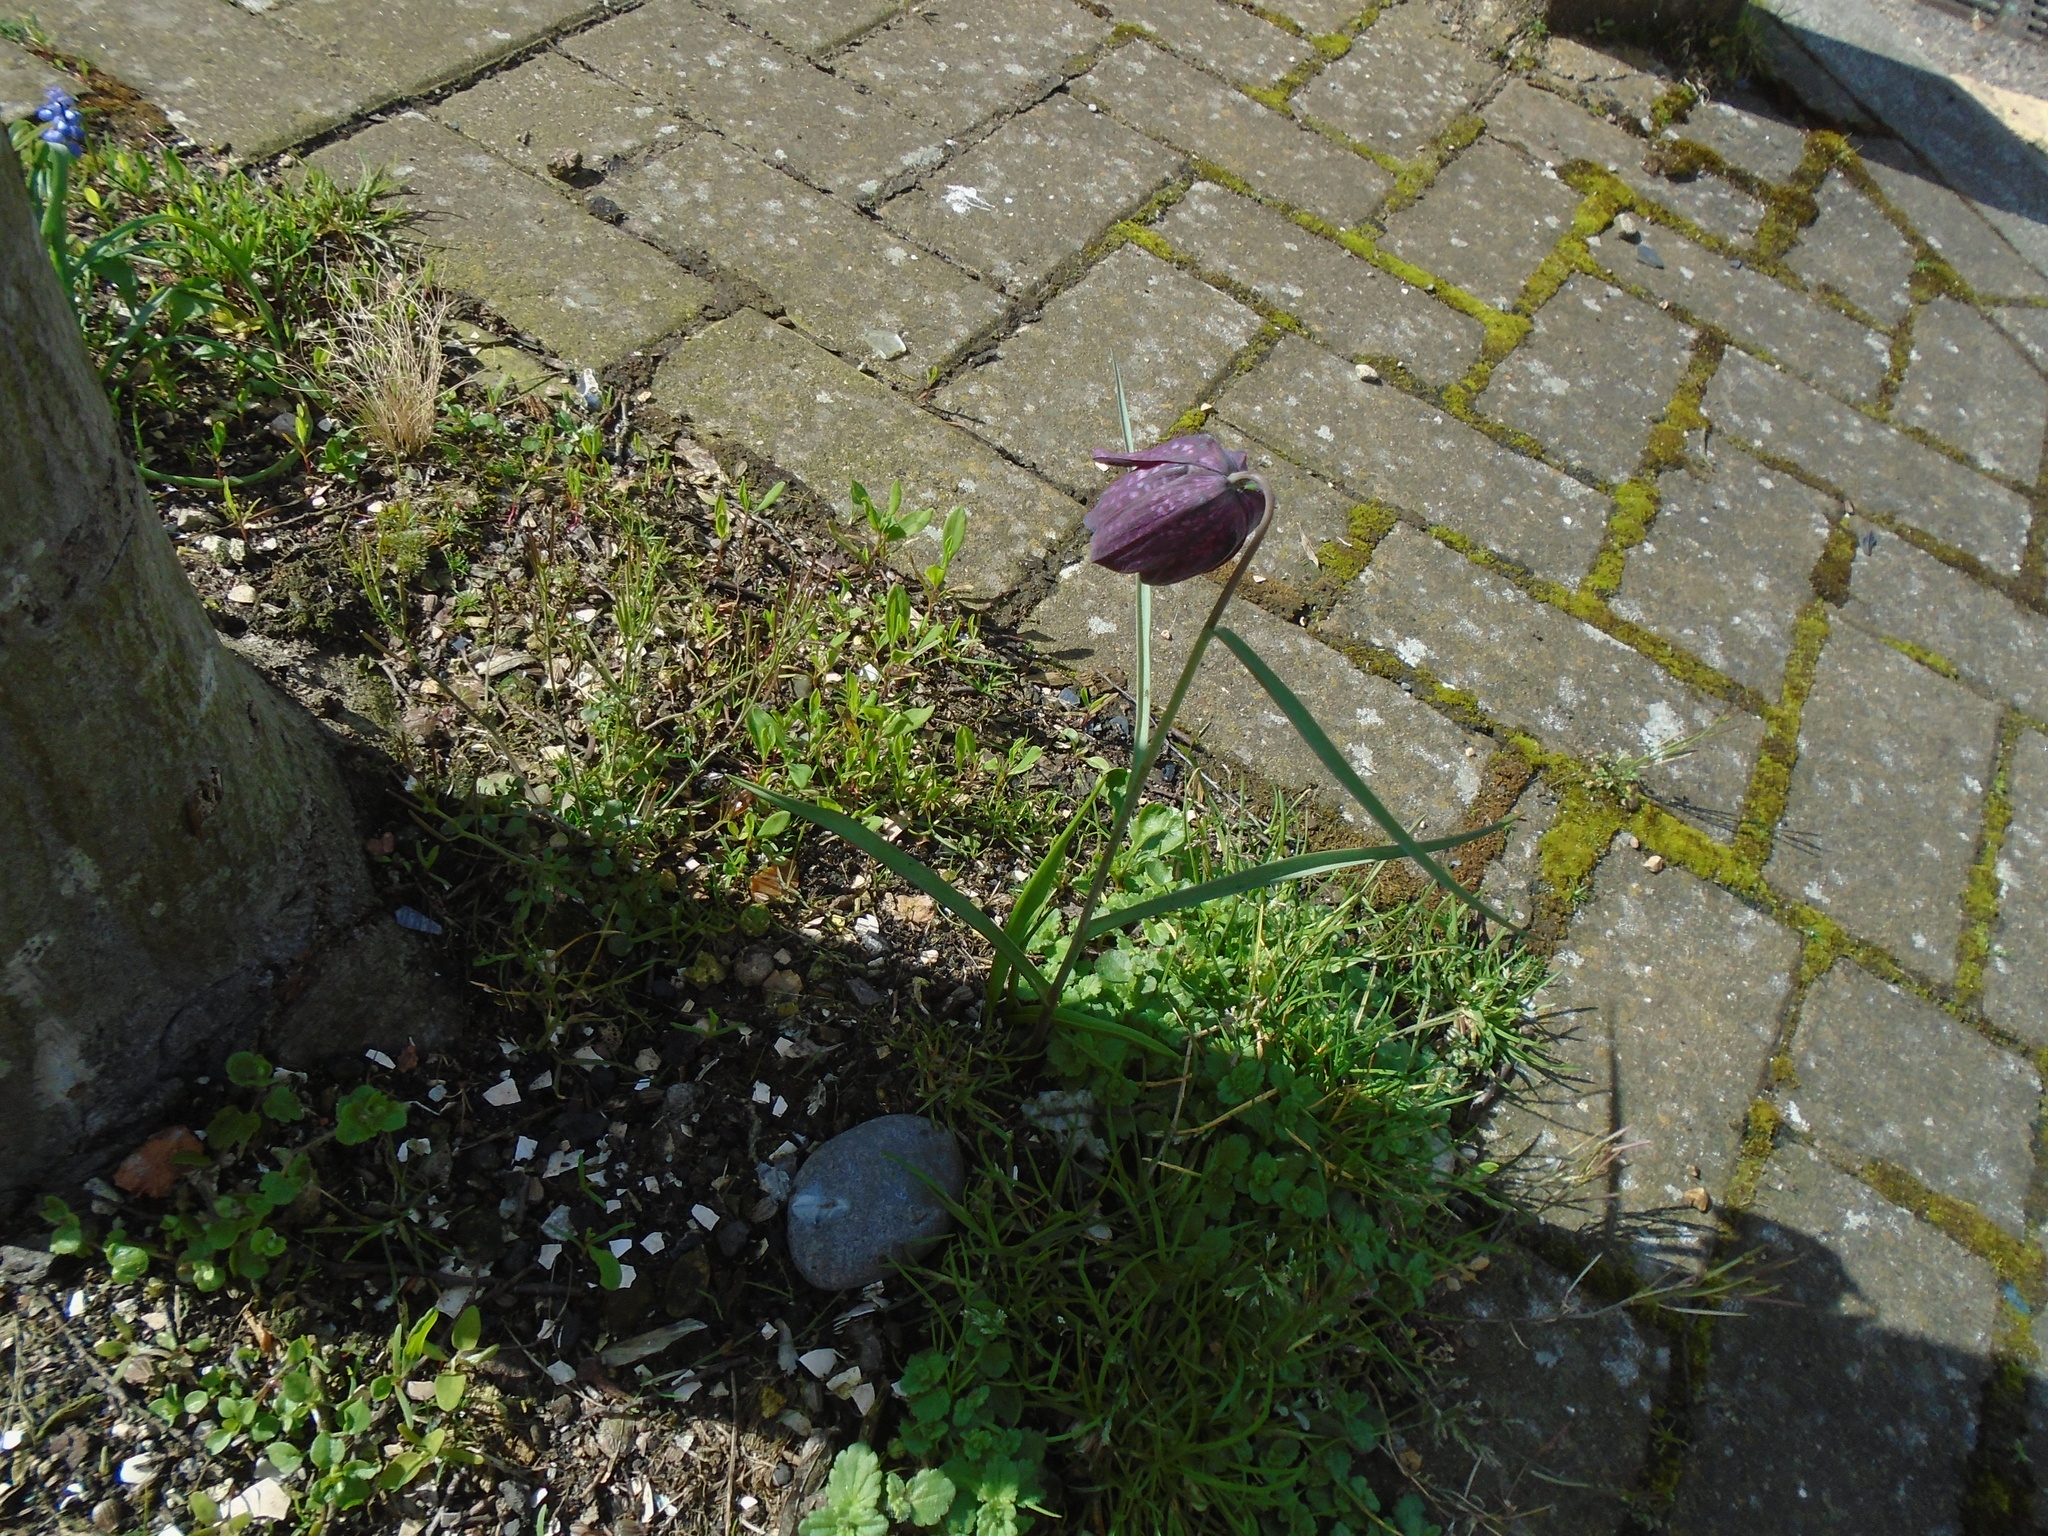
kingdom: Plantae
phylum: Tracheophyta
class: Liliopsida
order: Liliales
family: Liliaceae
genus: Fritillaria
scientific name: Fritillaria meleagris
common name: Fritillary
